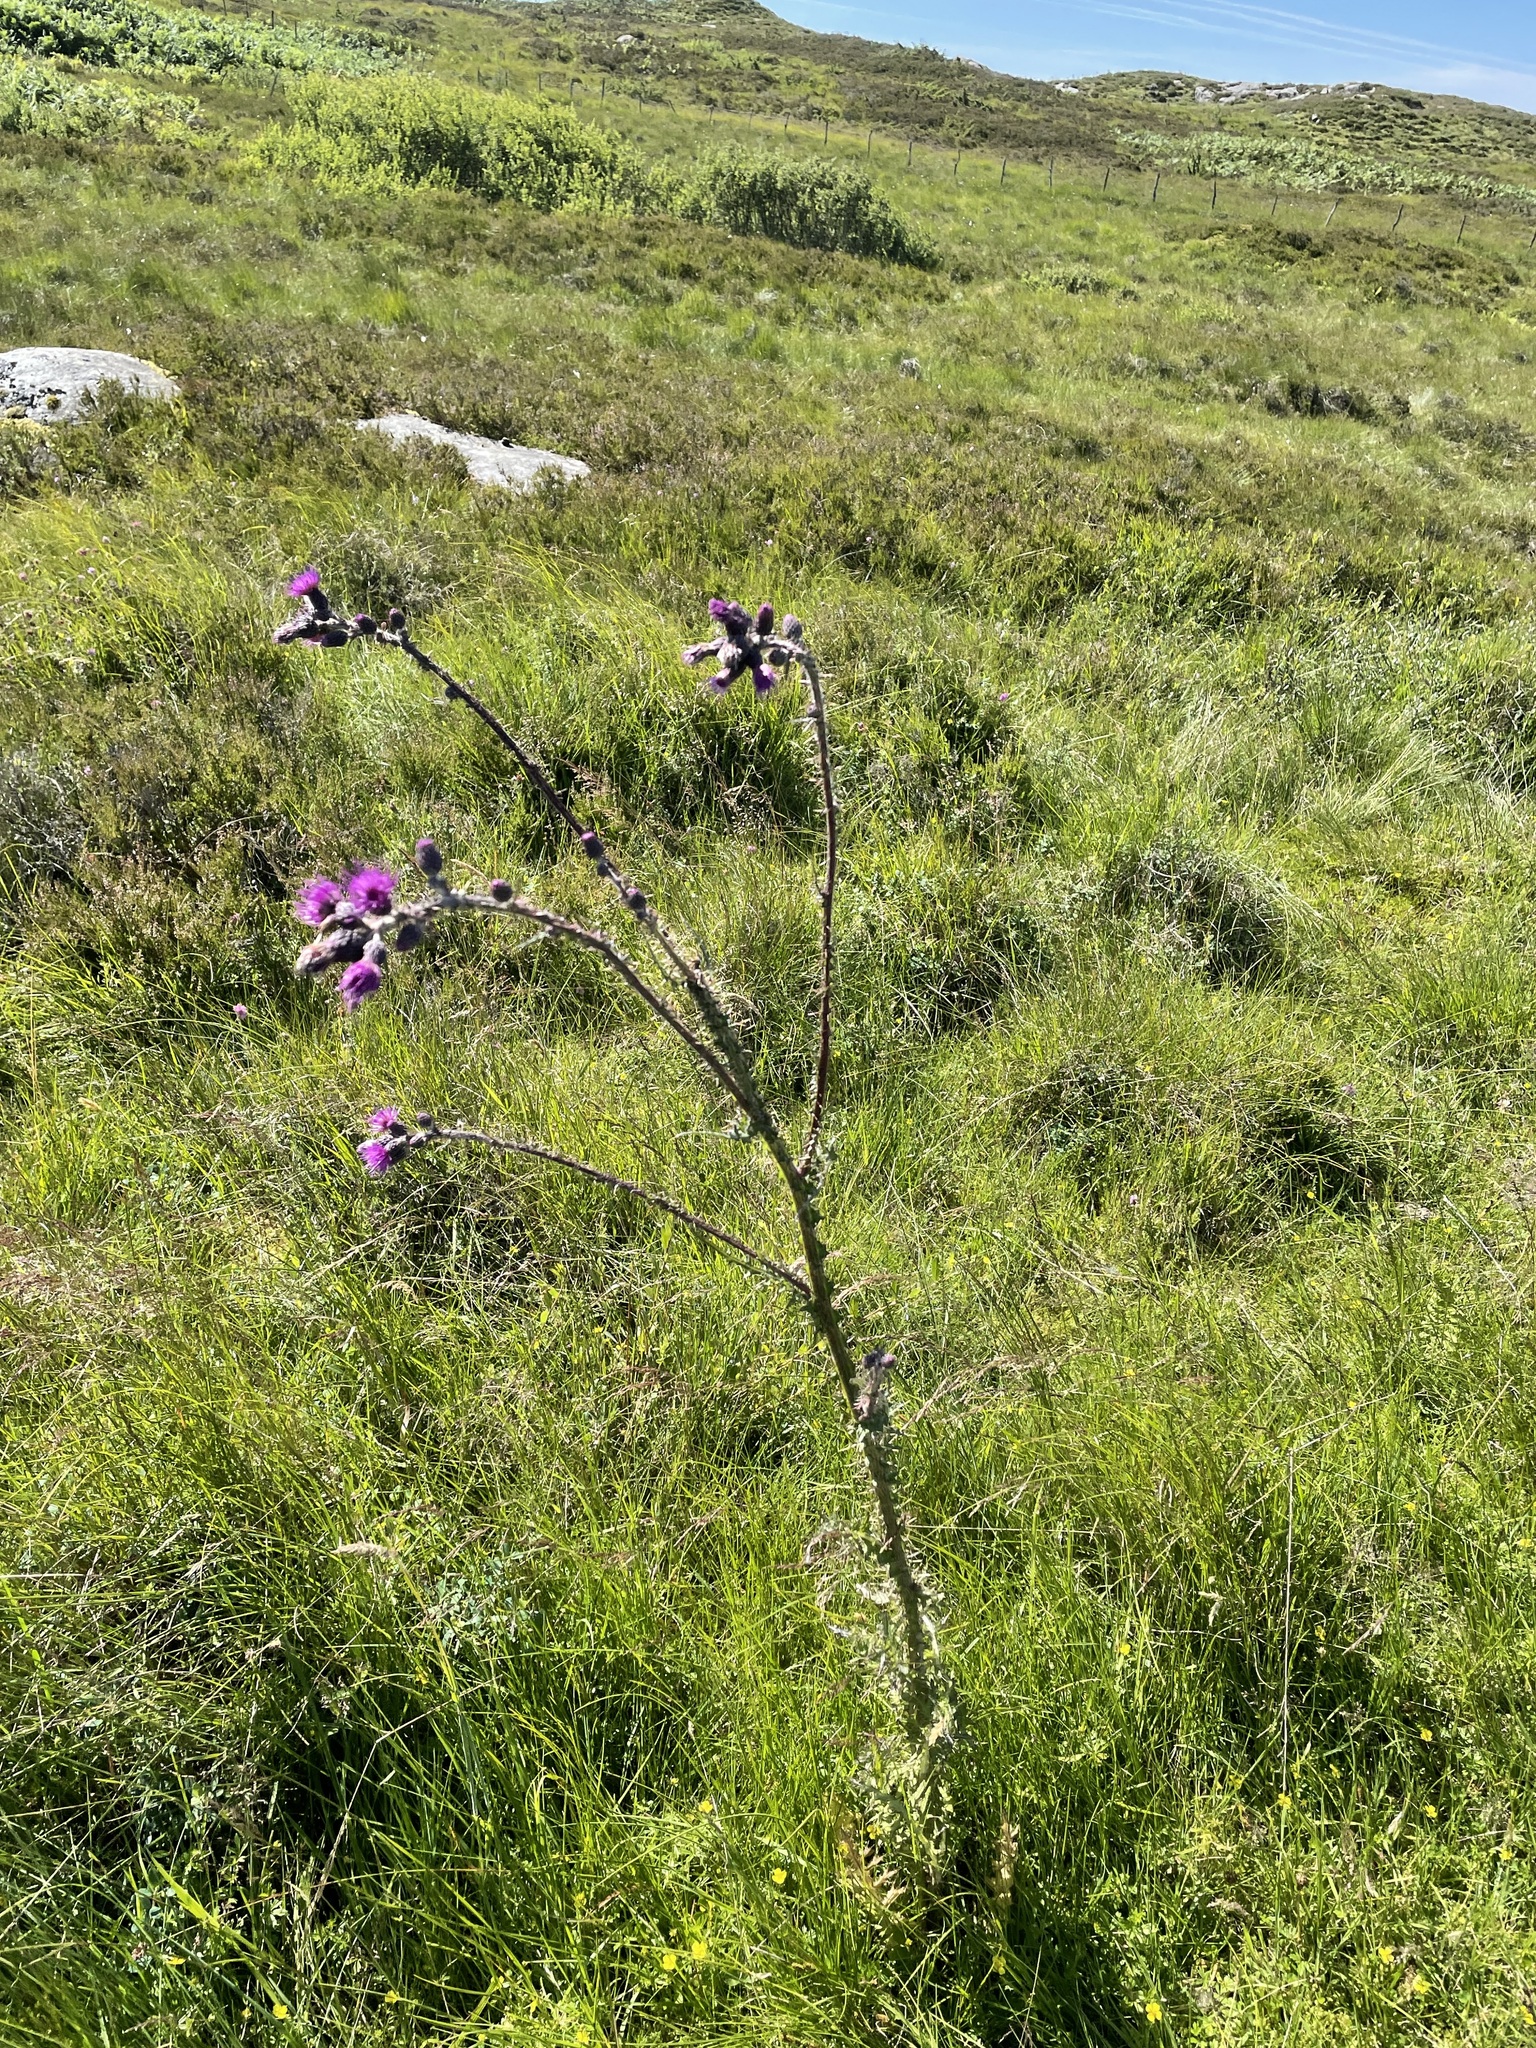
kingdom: Plantae
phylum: Tracheophyta
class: Magnoliopsida
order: Asterales
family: Asteraceae
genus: Cirsium
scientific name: Cirsium palustre
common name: Marsh thistle
